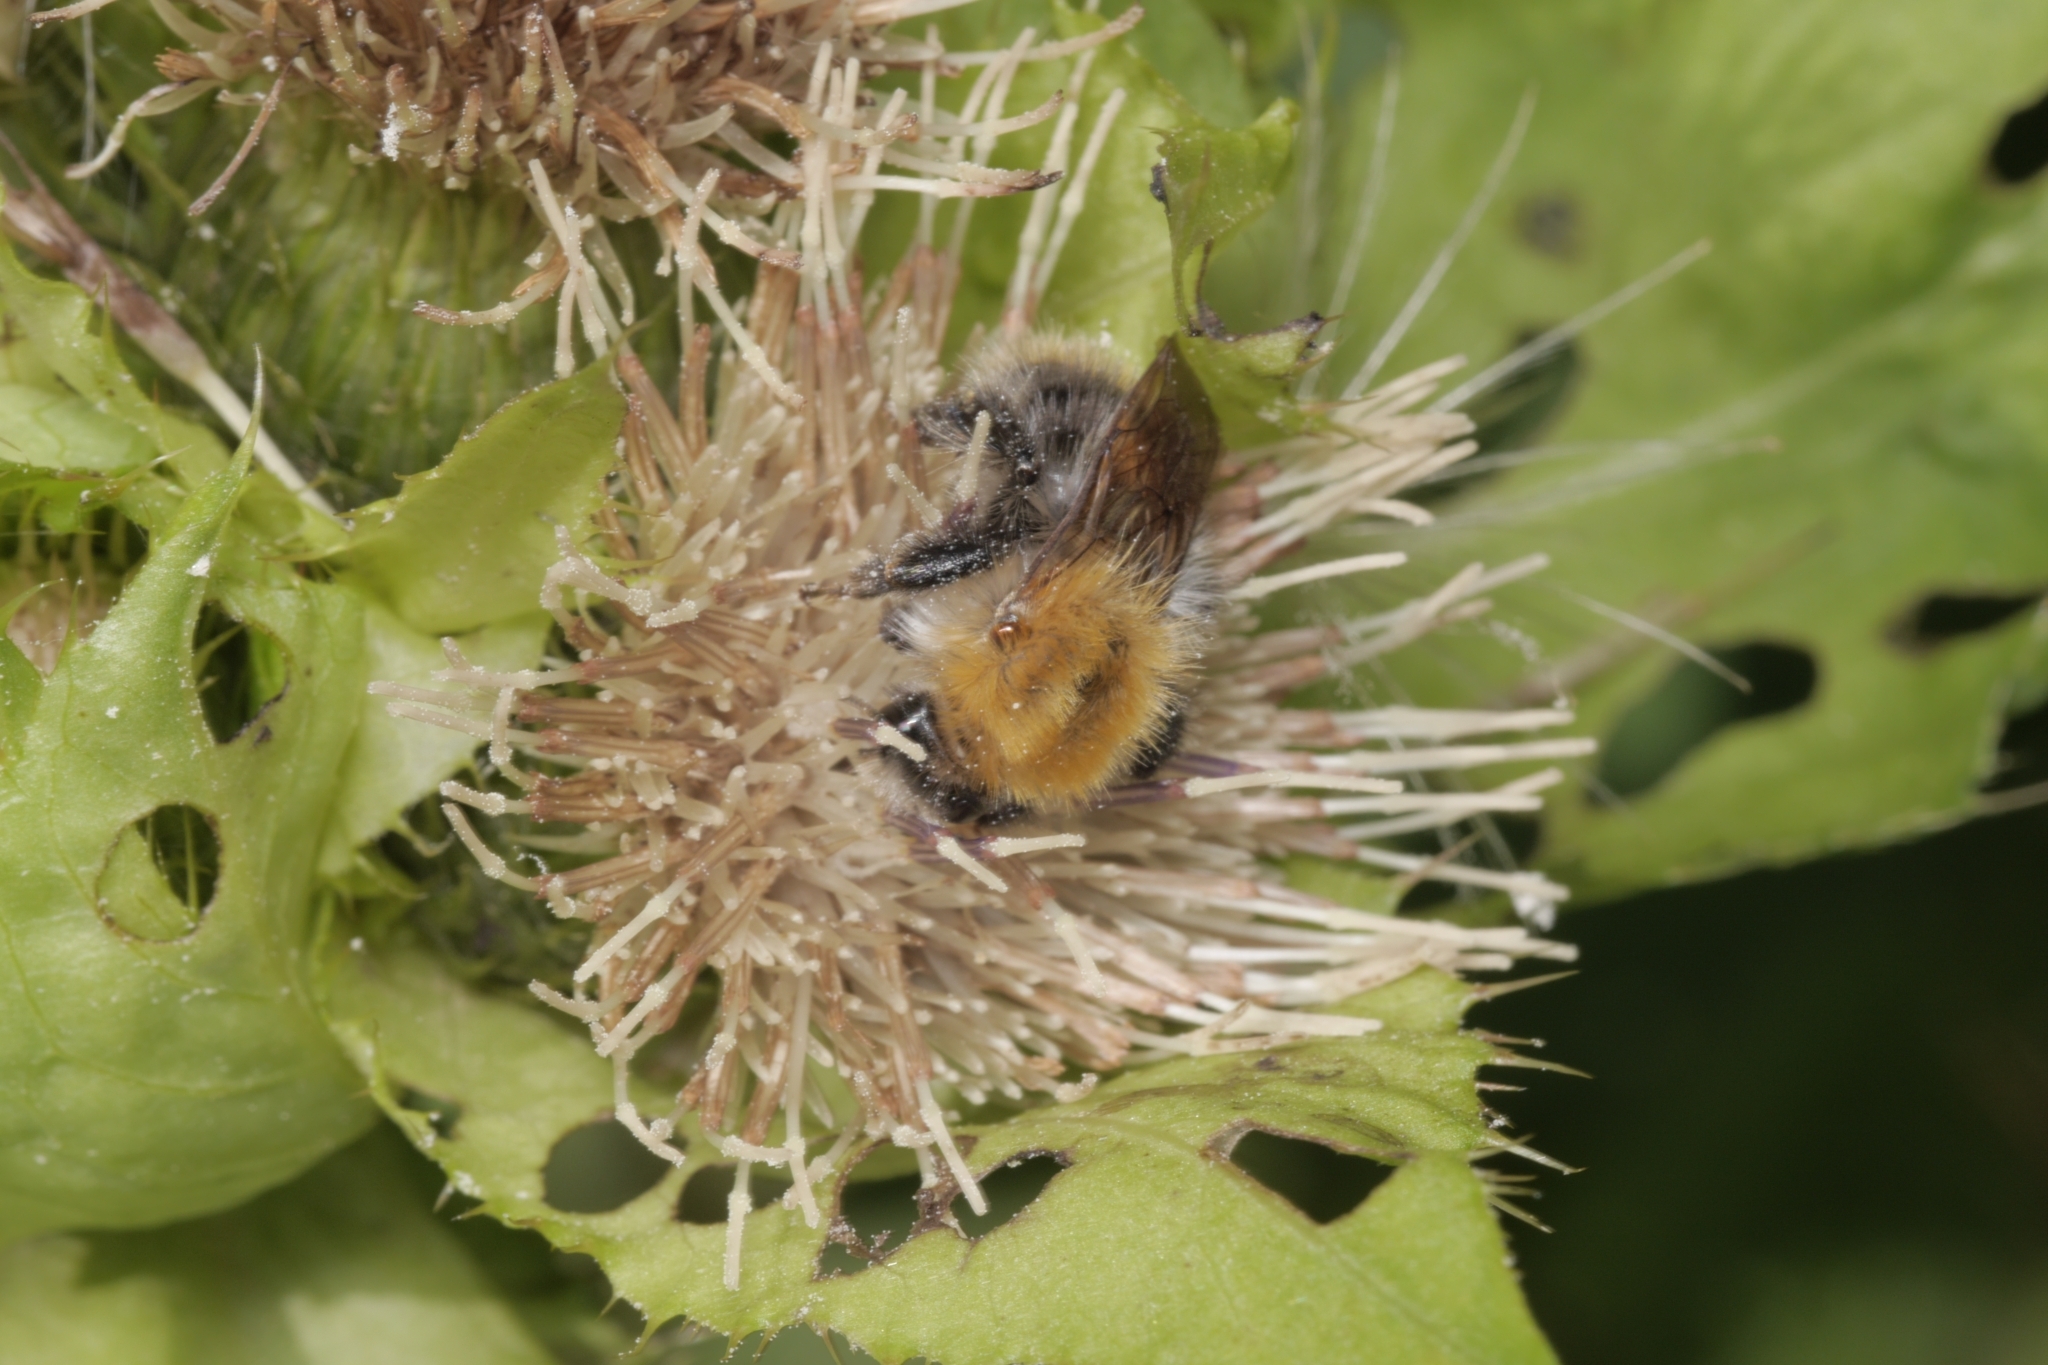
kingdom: Animalia
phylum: Arthropoda
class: Insecta
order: Hymenoptera
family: Apidae
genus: Bombus
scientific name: Bombus pascuorum
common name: Common carder bee
